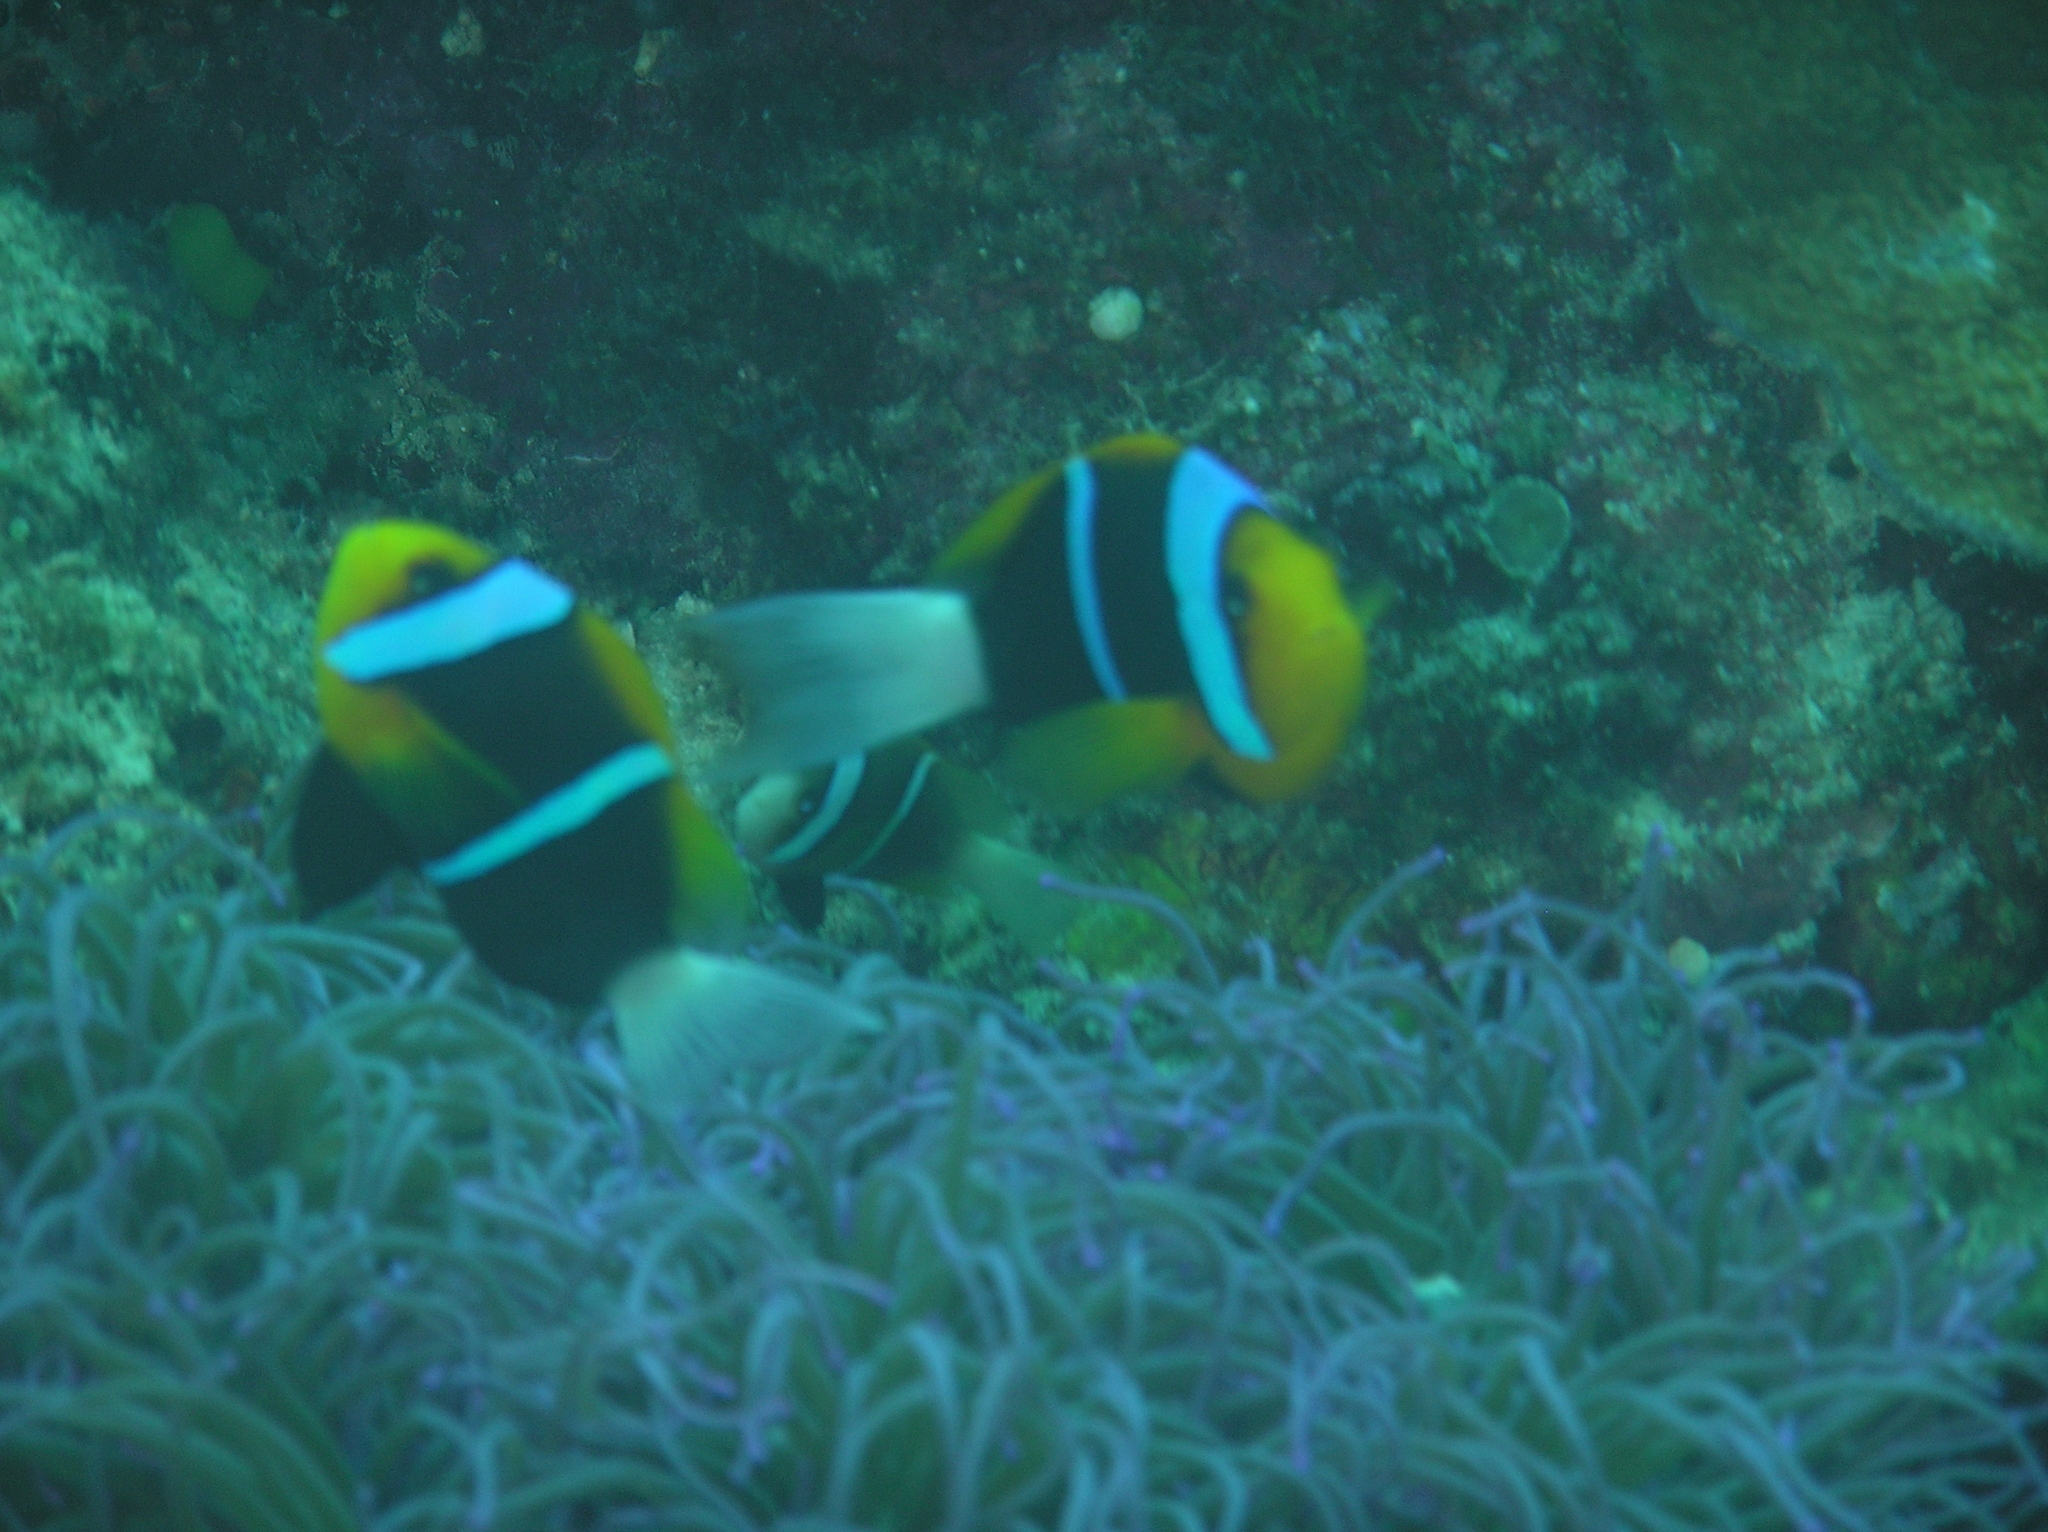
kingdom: Animalia
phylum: Chordata
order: Perciformes
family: Pomacentridae
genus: Amphiprion
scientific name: Amphiprion chrysopterus
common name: Orange-fin anemonefish
